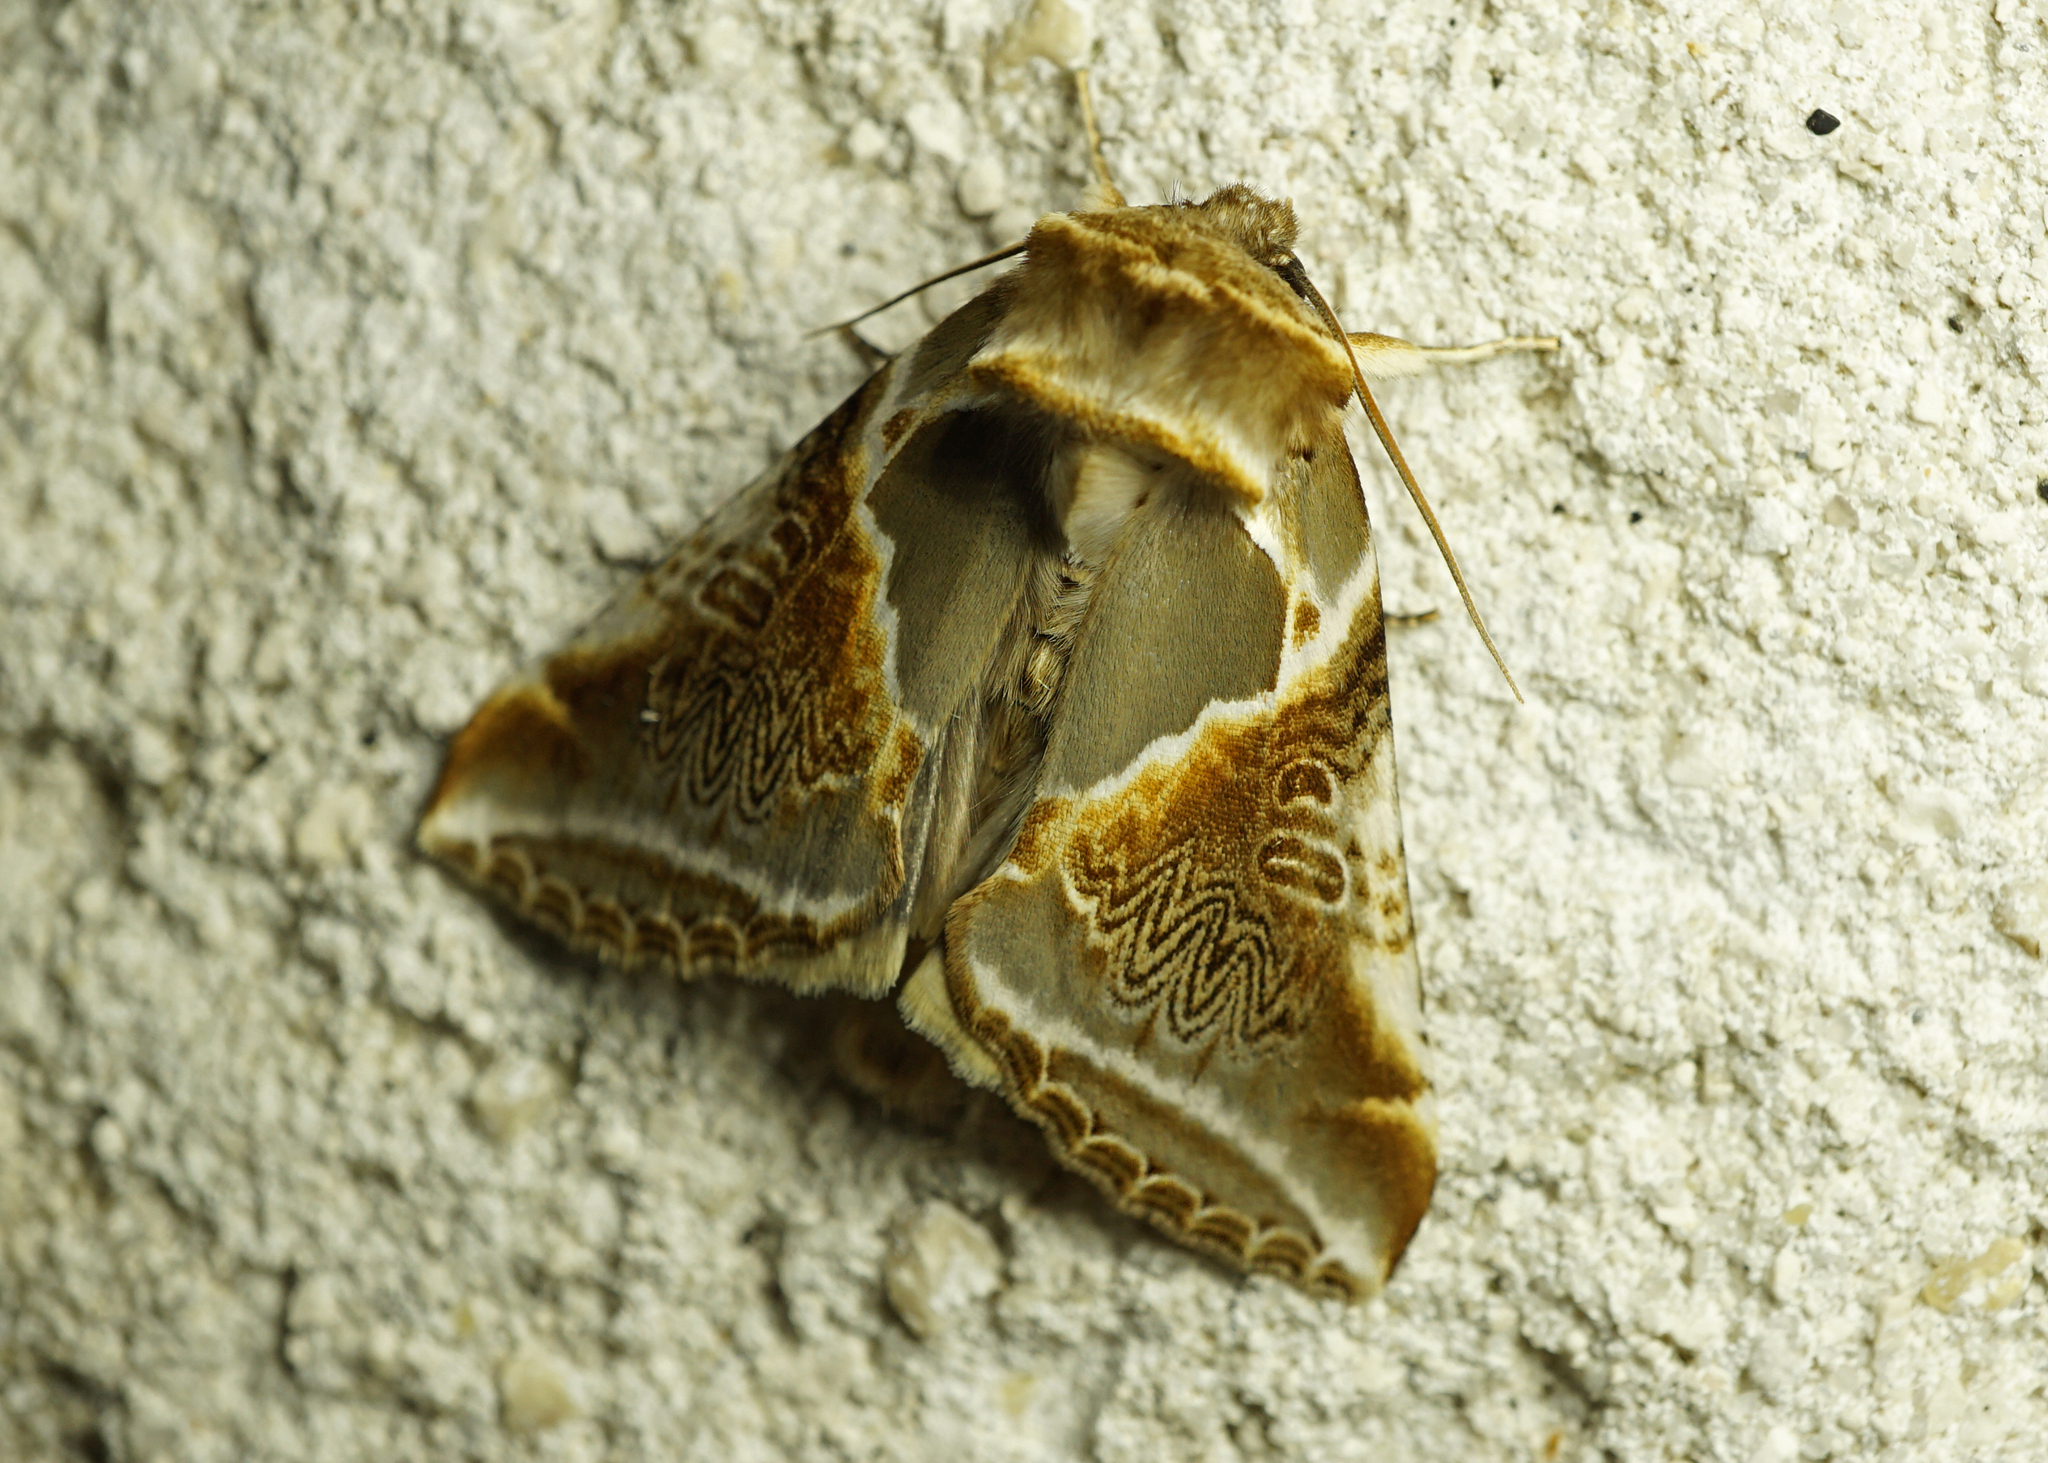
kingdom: Animalia
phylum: Arthropoda
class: Insecta
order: Lepidoptera
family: Drepanidae
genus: Habrosyne
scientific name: Habrosyne pyritoides
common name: Buff arches
